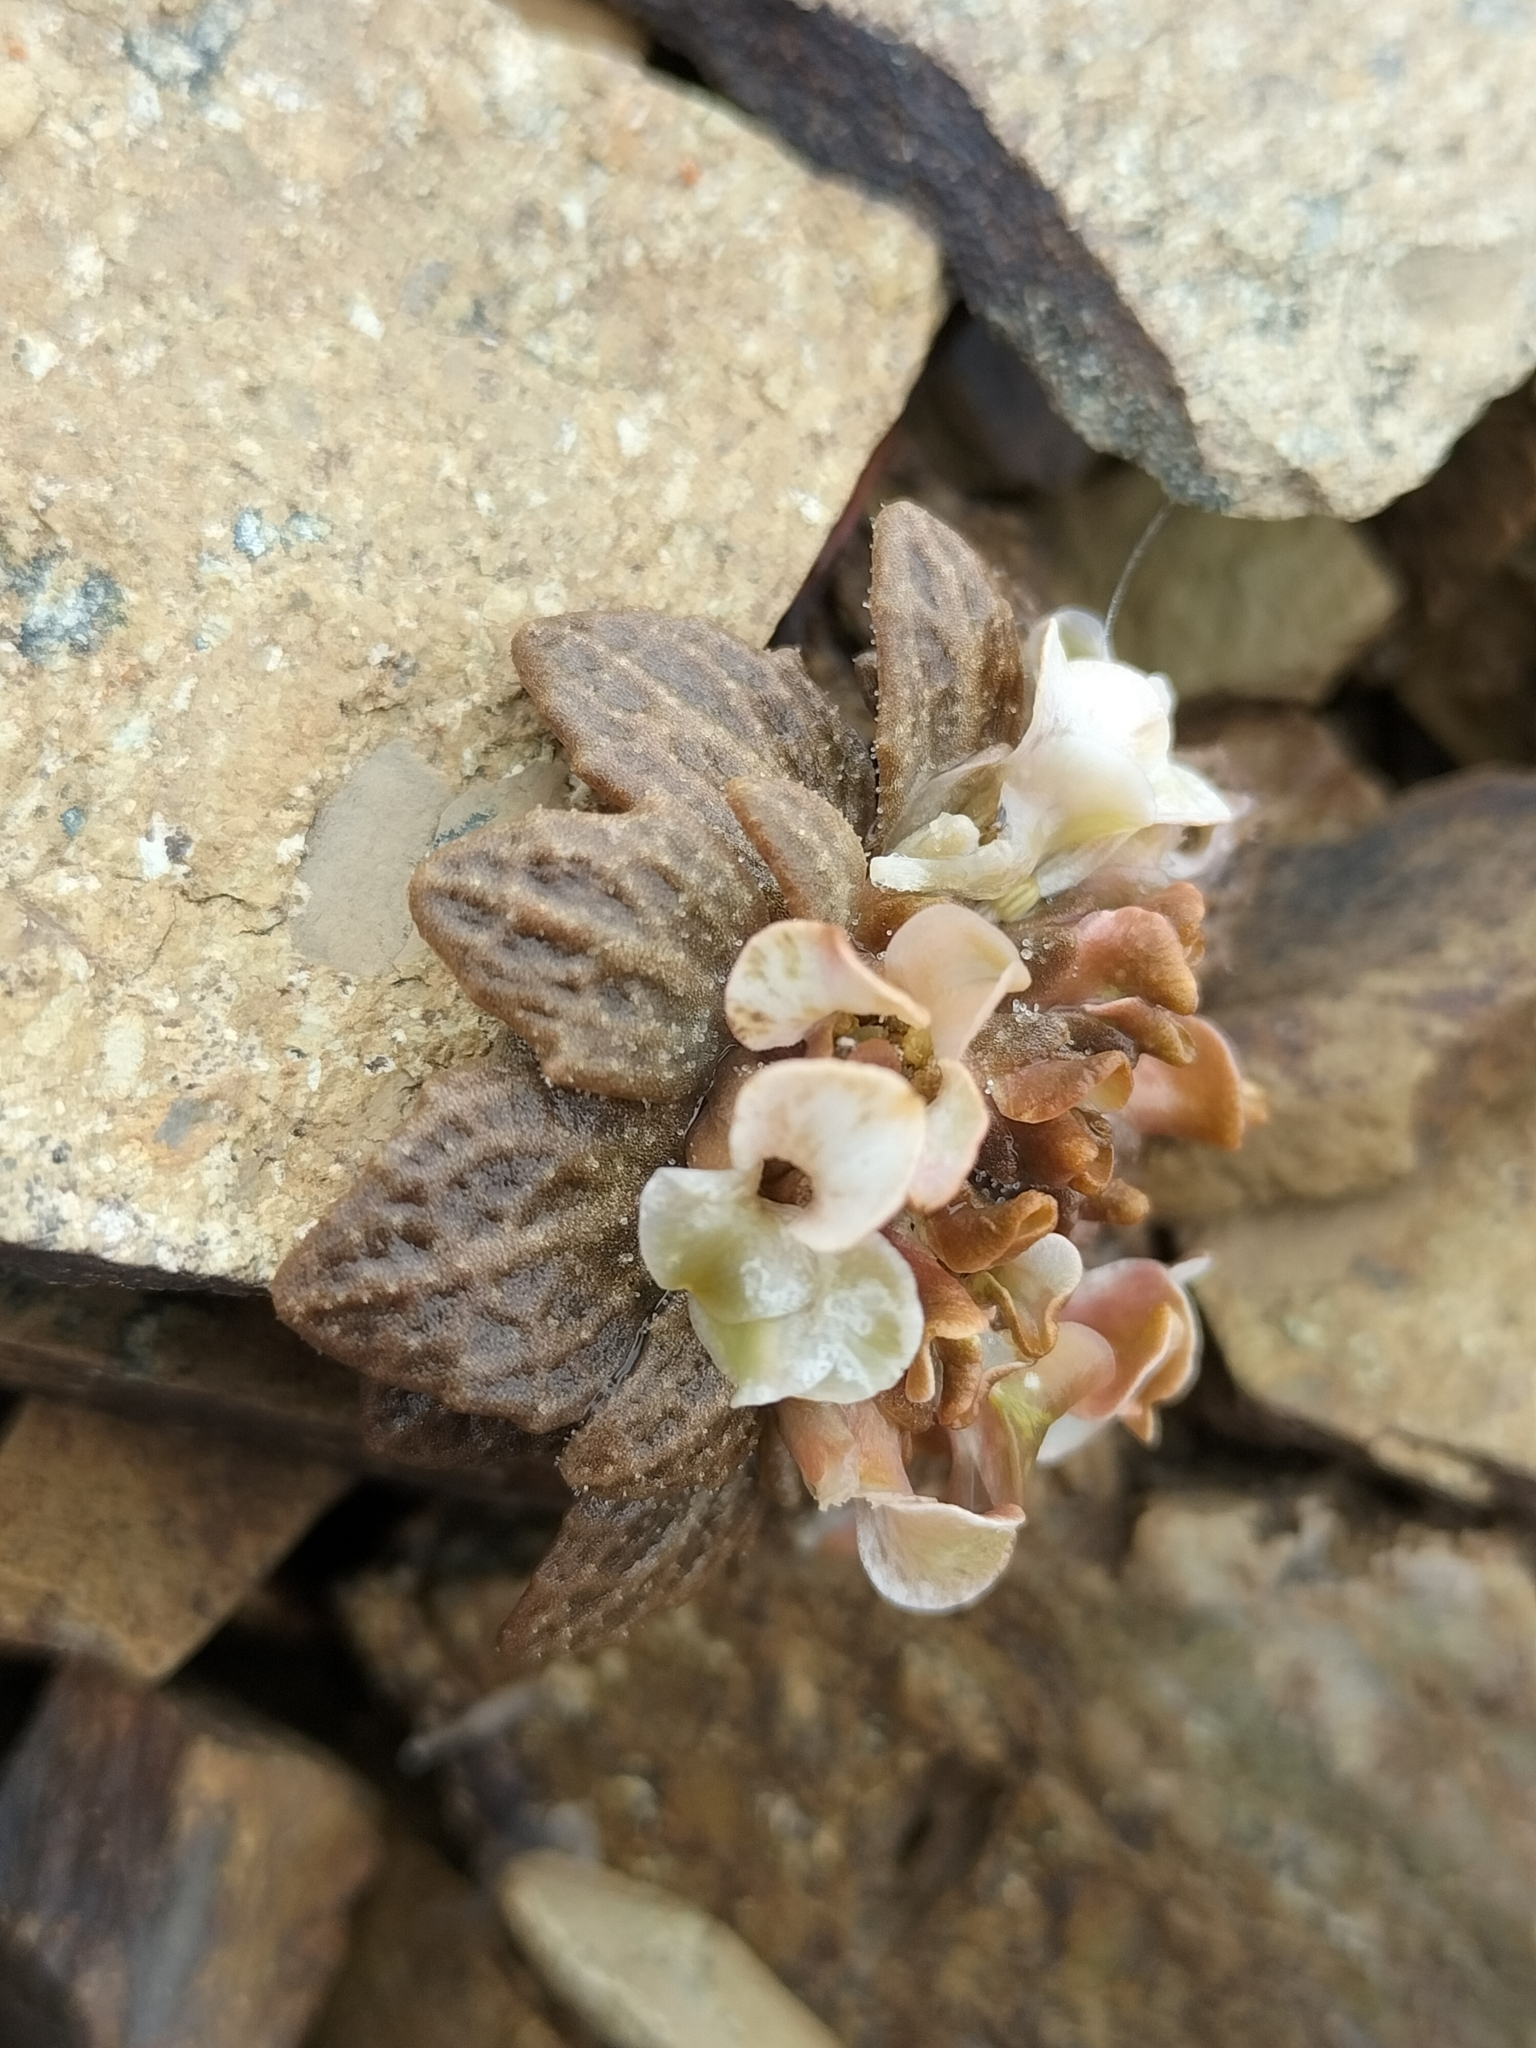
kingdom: Plantae
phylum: Tracheophyta
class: Magnoliopsida
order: Brassicales
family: Brassicaceae
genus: Notothlaspi
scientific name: Notothlaspi rosulatum
